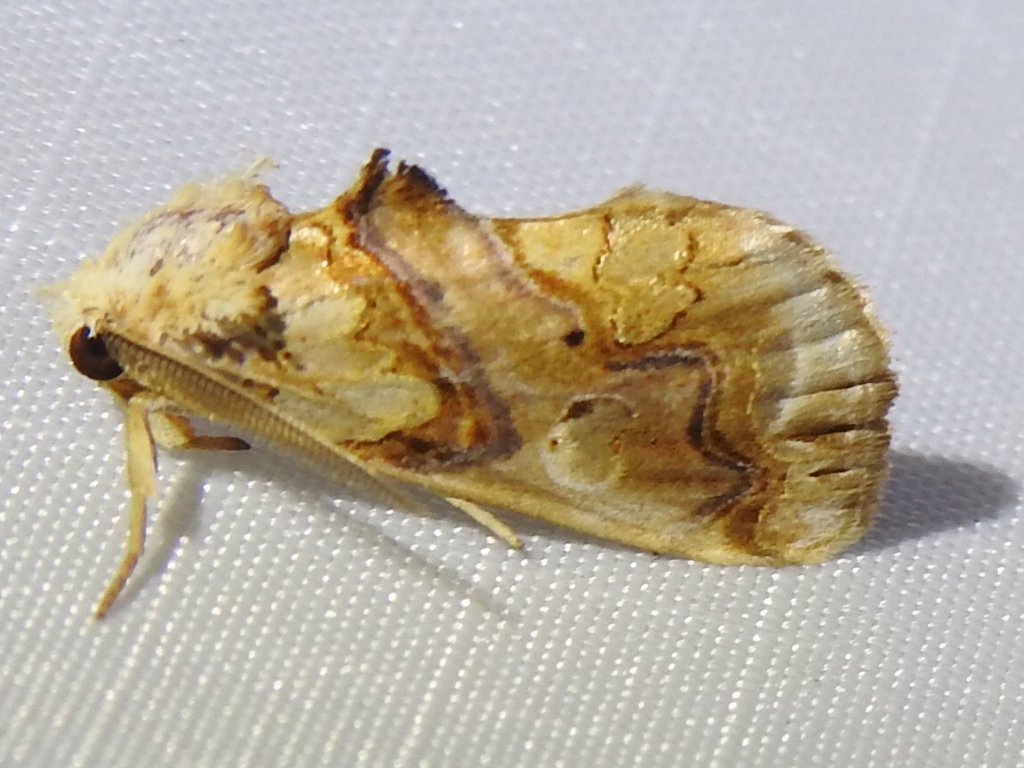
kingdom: Animalia
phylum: Arthropoda
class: Insecta
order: Lepidoptera
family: Erebidae
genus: Plusiodonta
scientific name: Plusiodonta compressipalpis
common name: Moonseed moth
